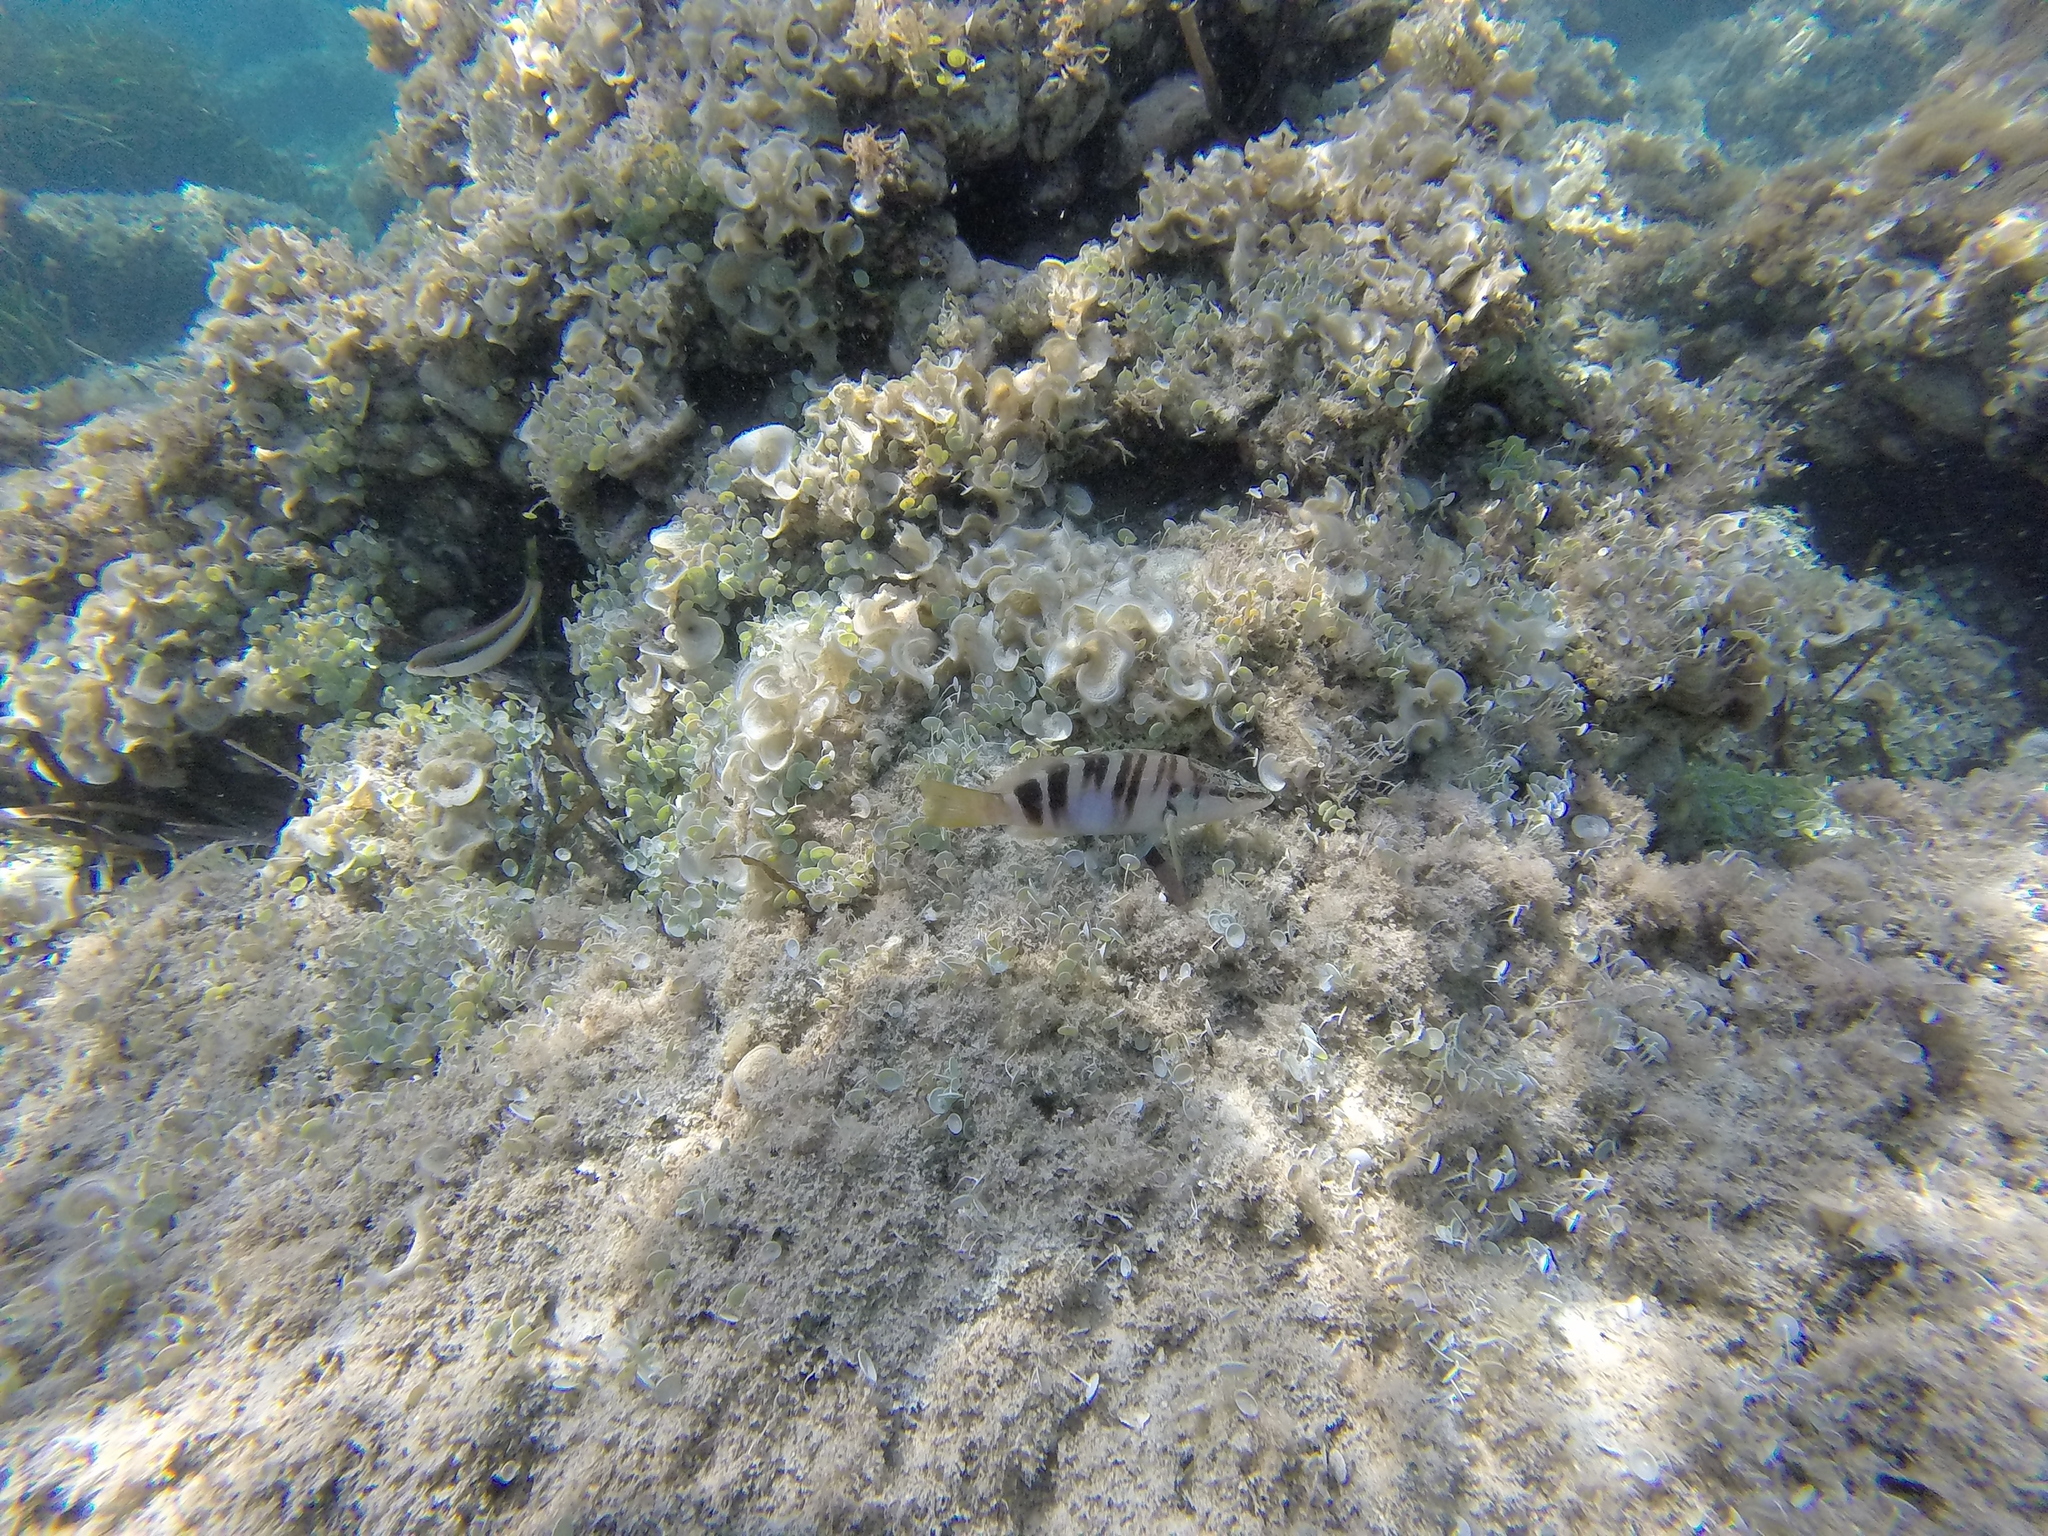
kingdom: Animalia
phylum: Chordata
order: Perciformes
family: Serranidae
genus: Serranus
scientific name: Serranus scriba
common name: Painted comber
